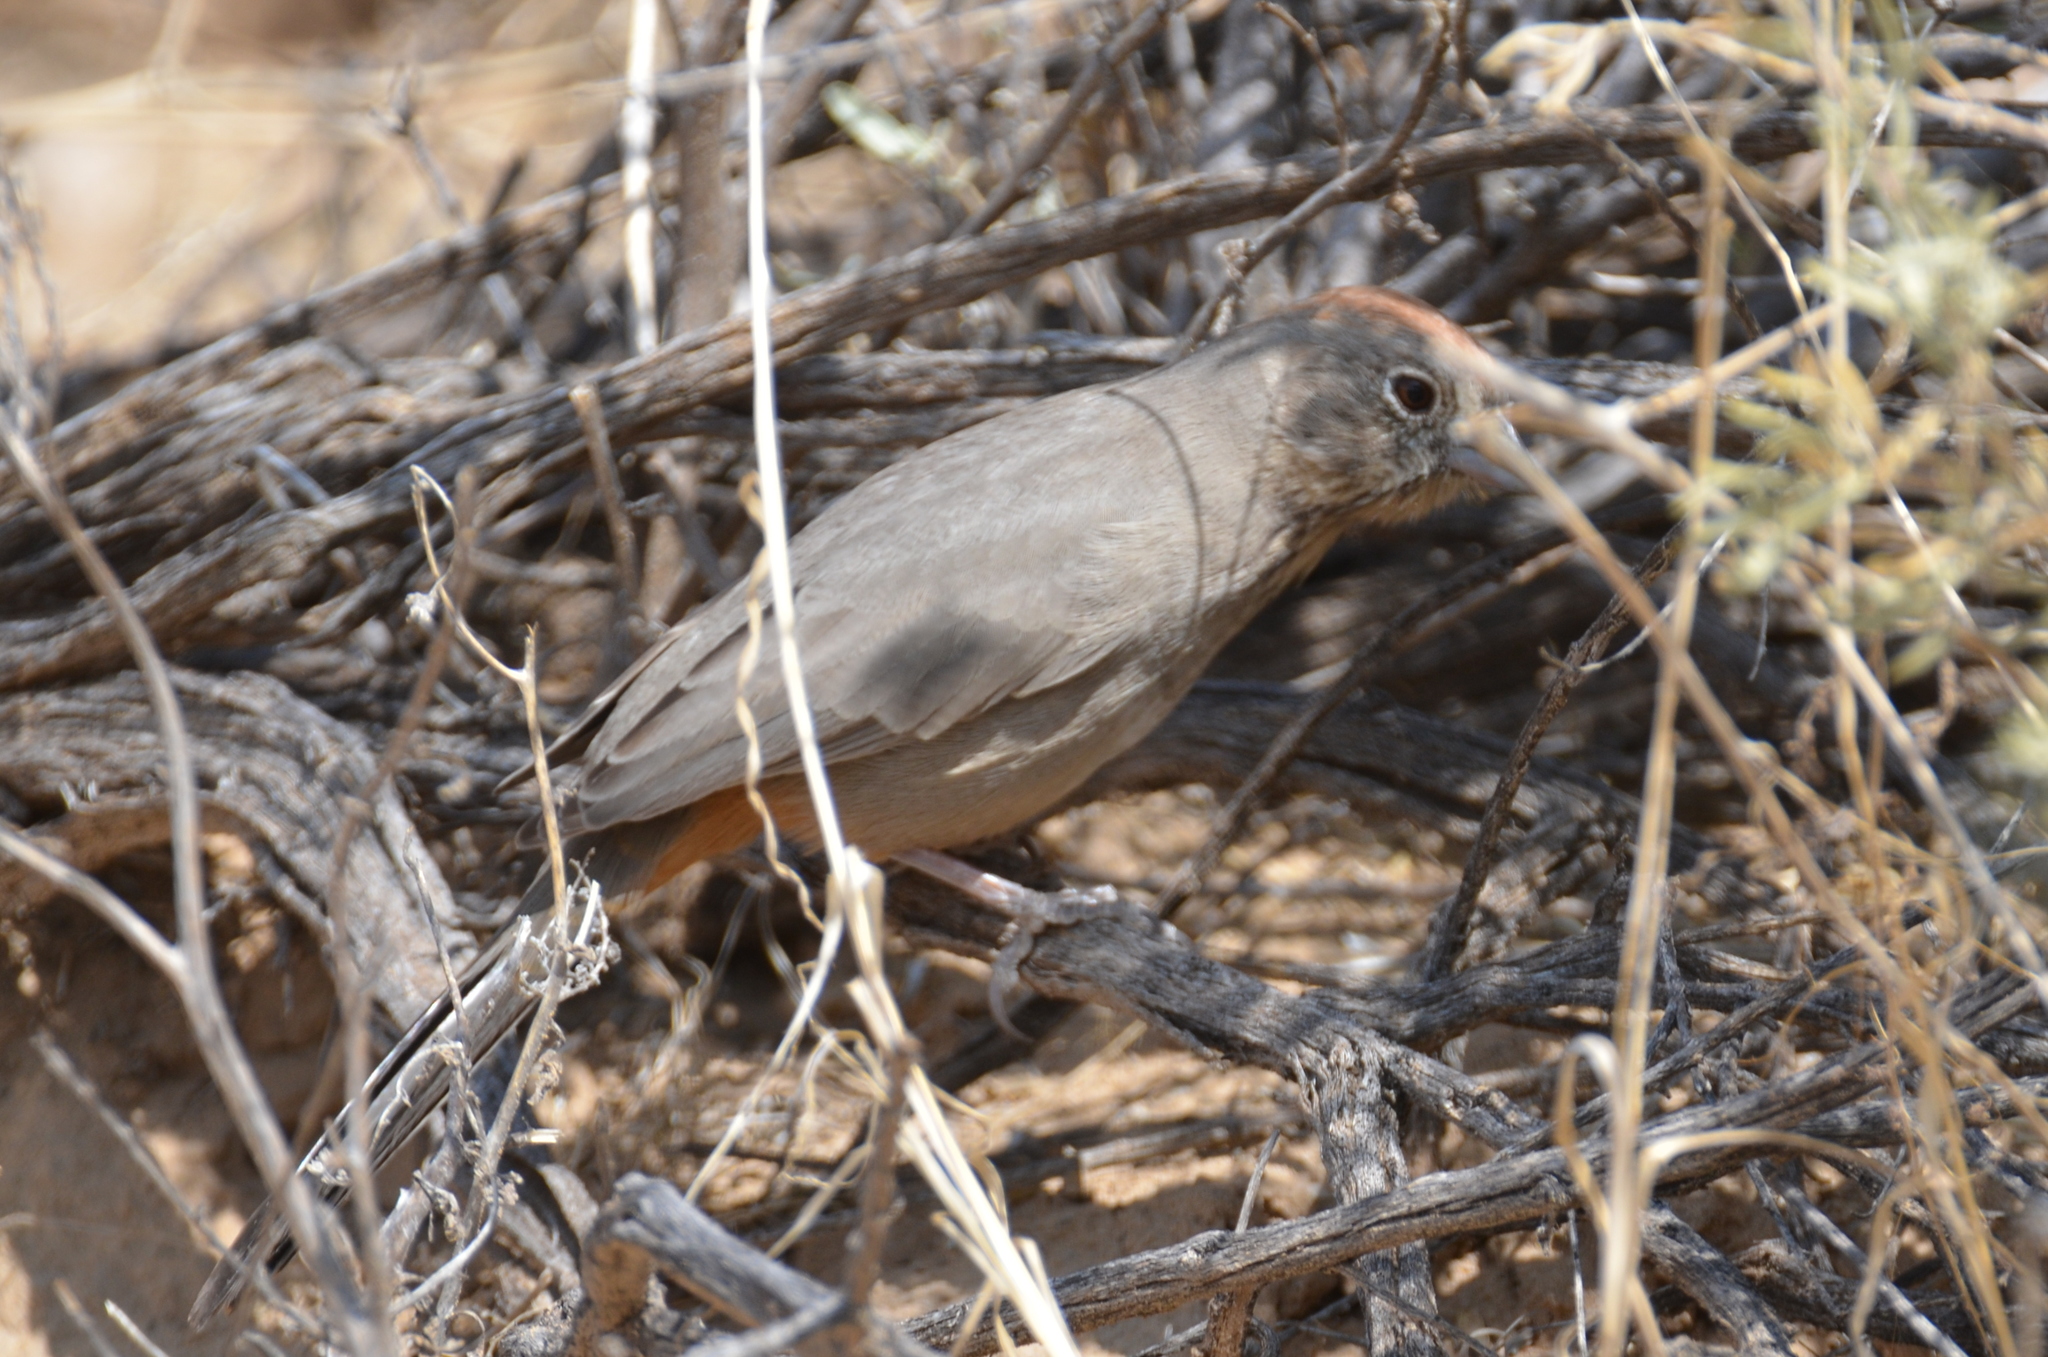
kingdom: Animalia
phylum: Chordata
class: Aves
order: Passeriformes
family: Passerellidae
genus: Melozone
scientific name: Melozone fusca
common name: Canyon towhee
